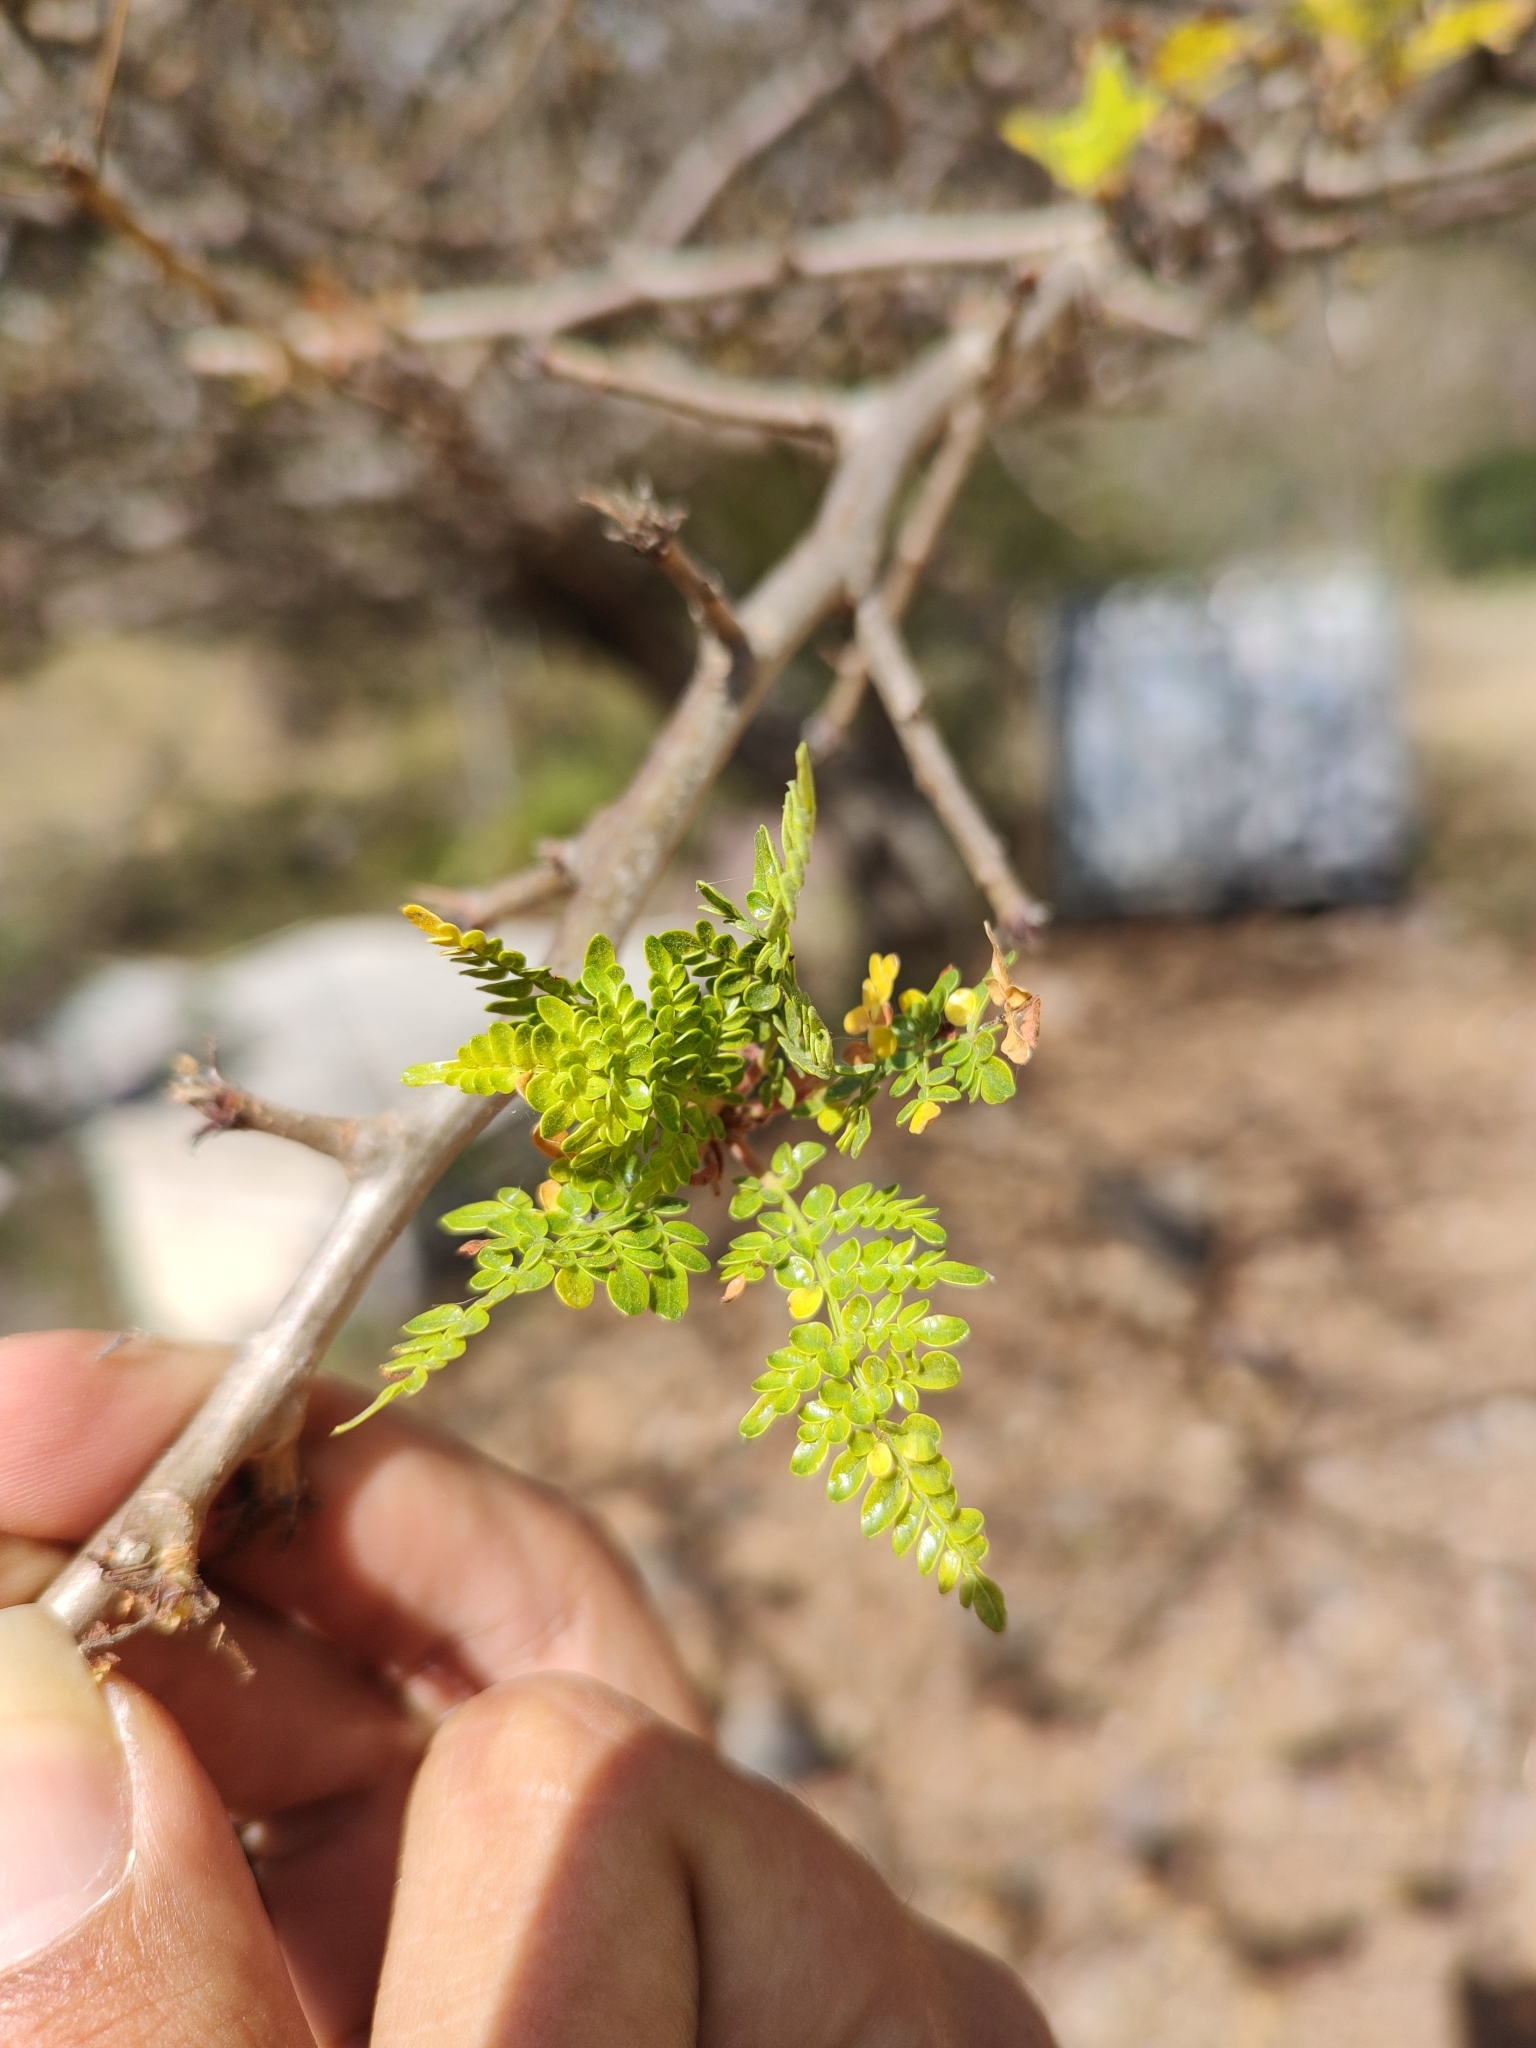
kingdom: Plantae
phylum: Tracheophyta
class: Magnoliopsida
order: Sapindales
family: Burseraceae
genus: Bursera
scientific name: Bursera bipinnata
